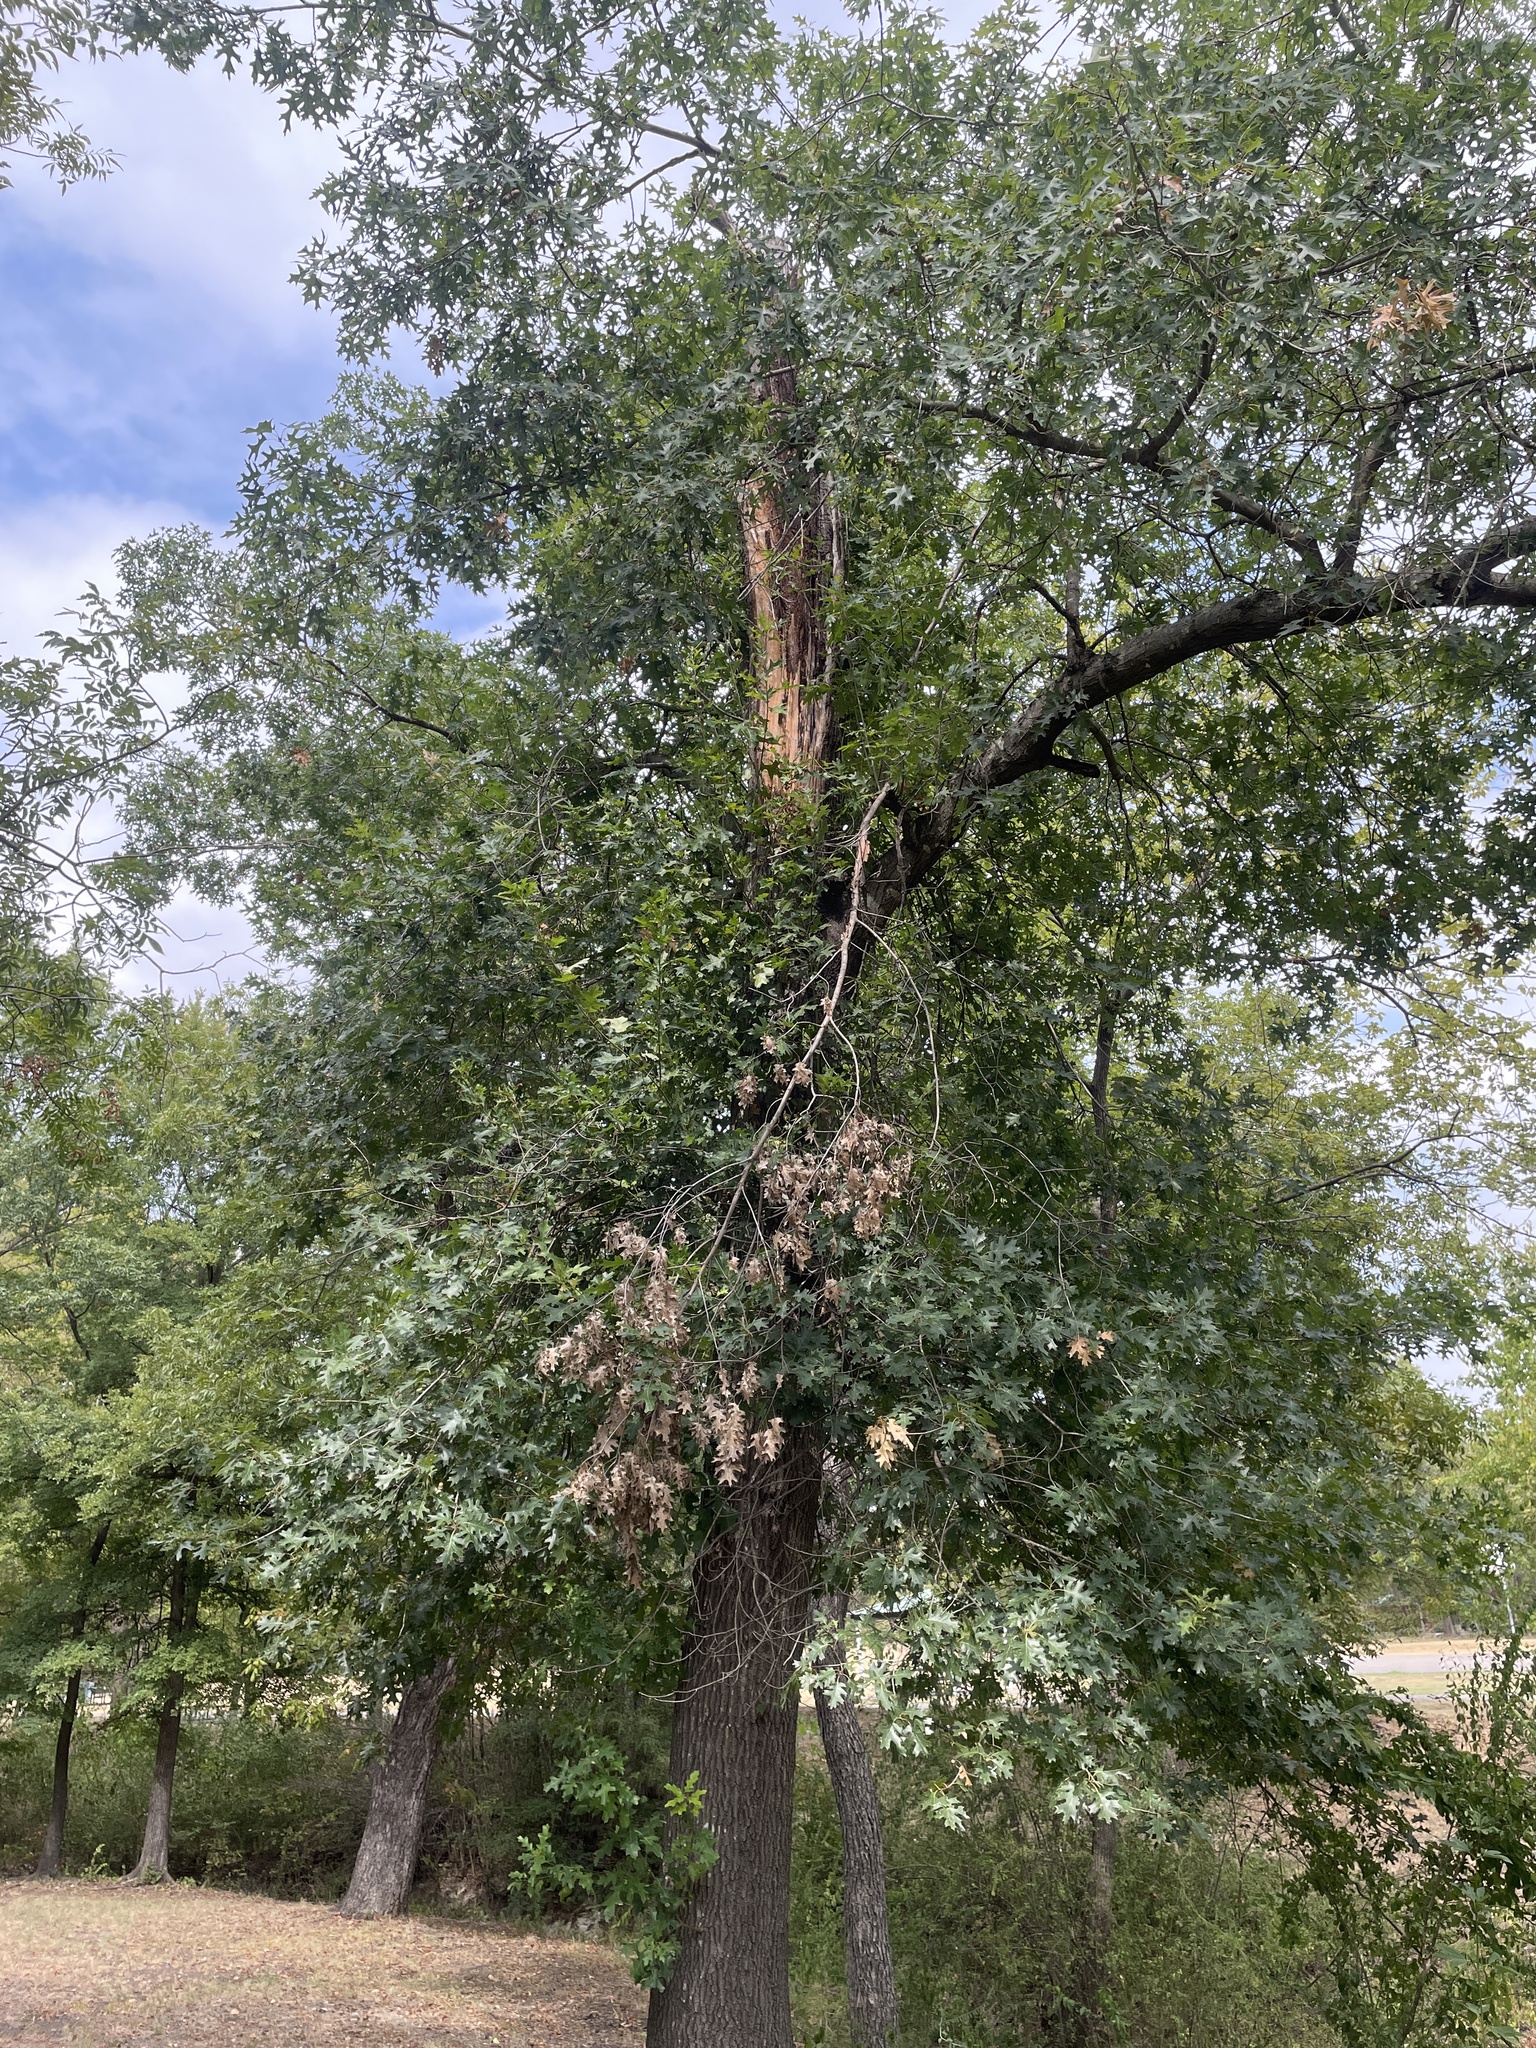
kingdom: Plantae
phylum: Tracheophyta
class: Magnoliopsida
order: Fagales
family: Fagaceae
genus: Quercus
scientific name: Quercus shumardii
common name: Shumard oak
